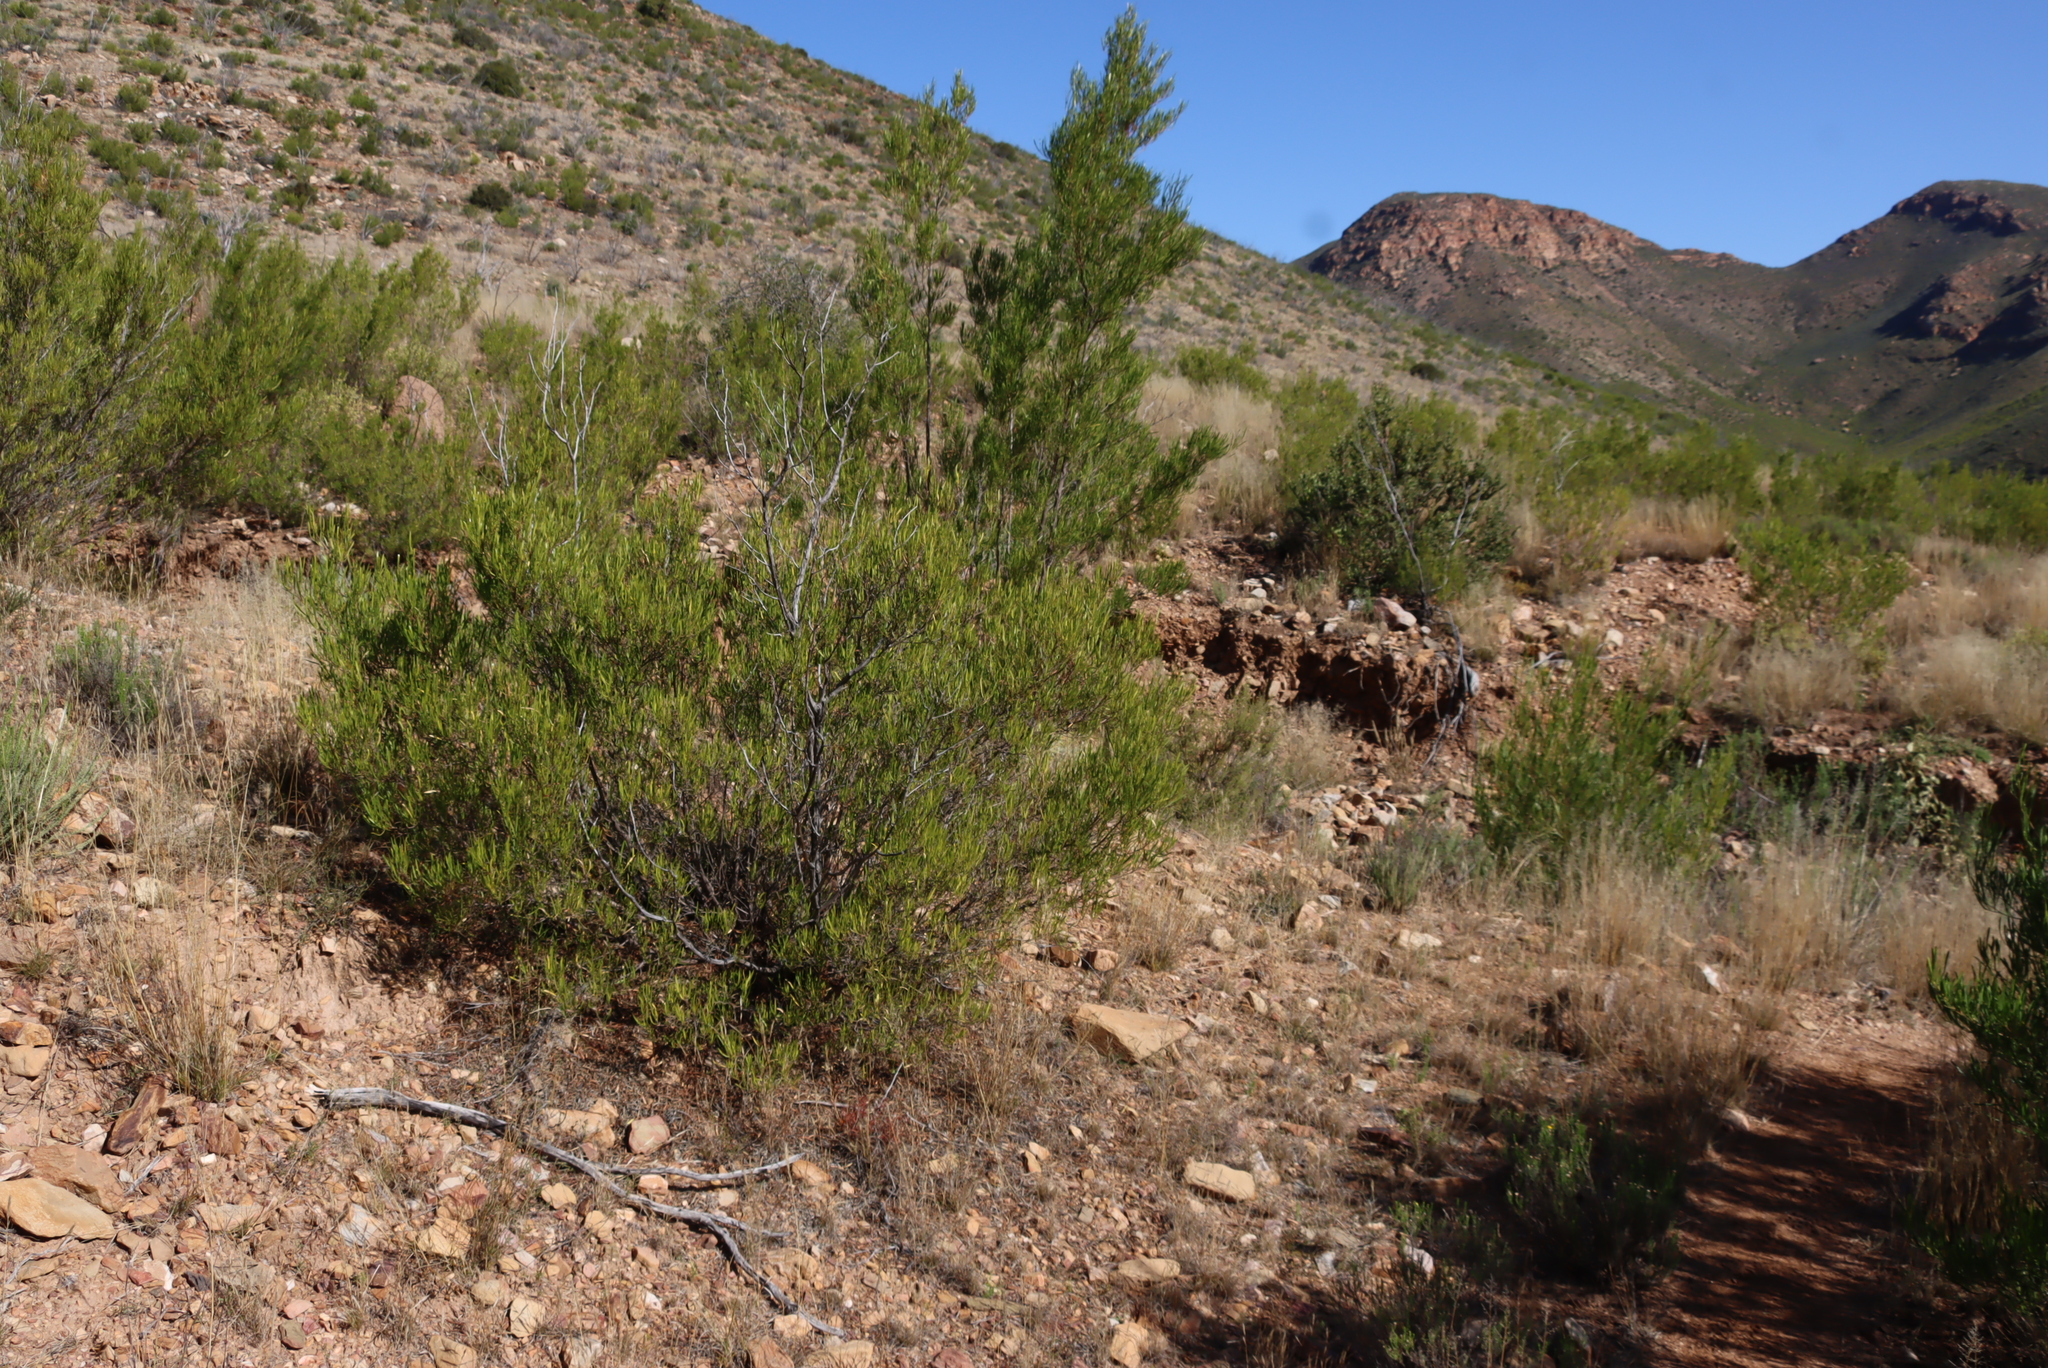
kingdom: Plantae
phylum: Tracheophyta
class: Magnoliopsida
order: Sapindales
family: Sapindaceae
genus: Dodonaea
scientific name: Dodonaea viscosa
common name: Hopbush
